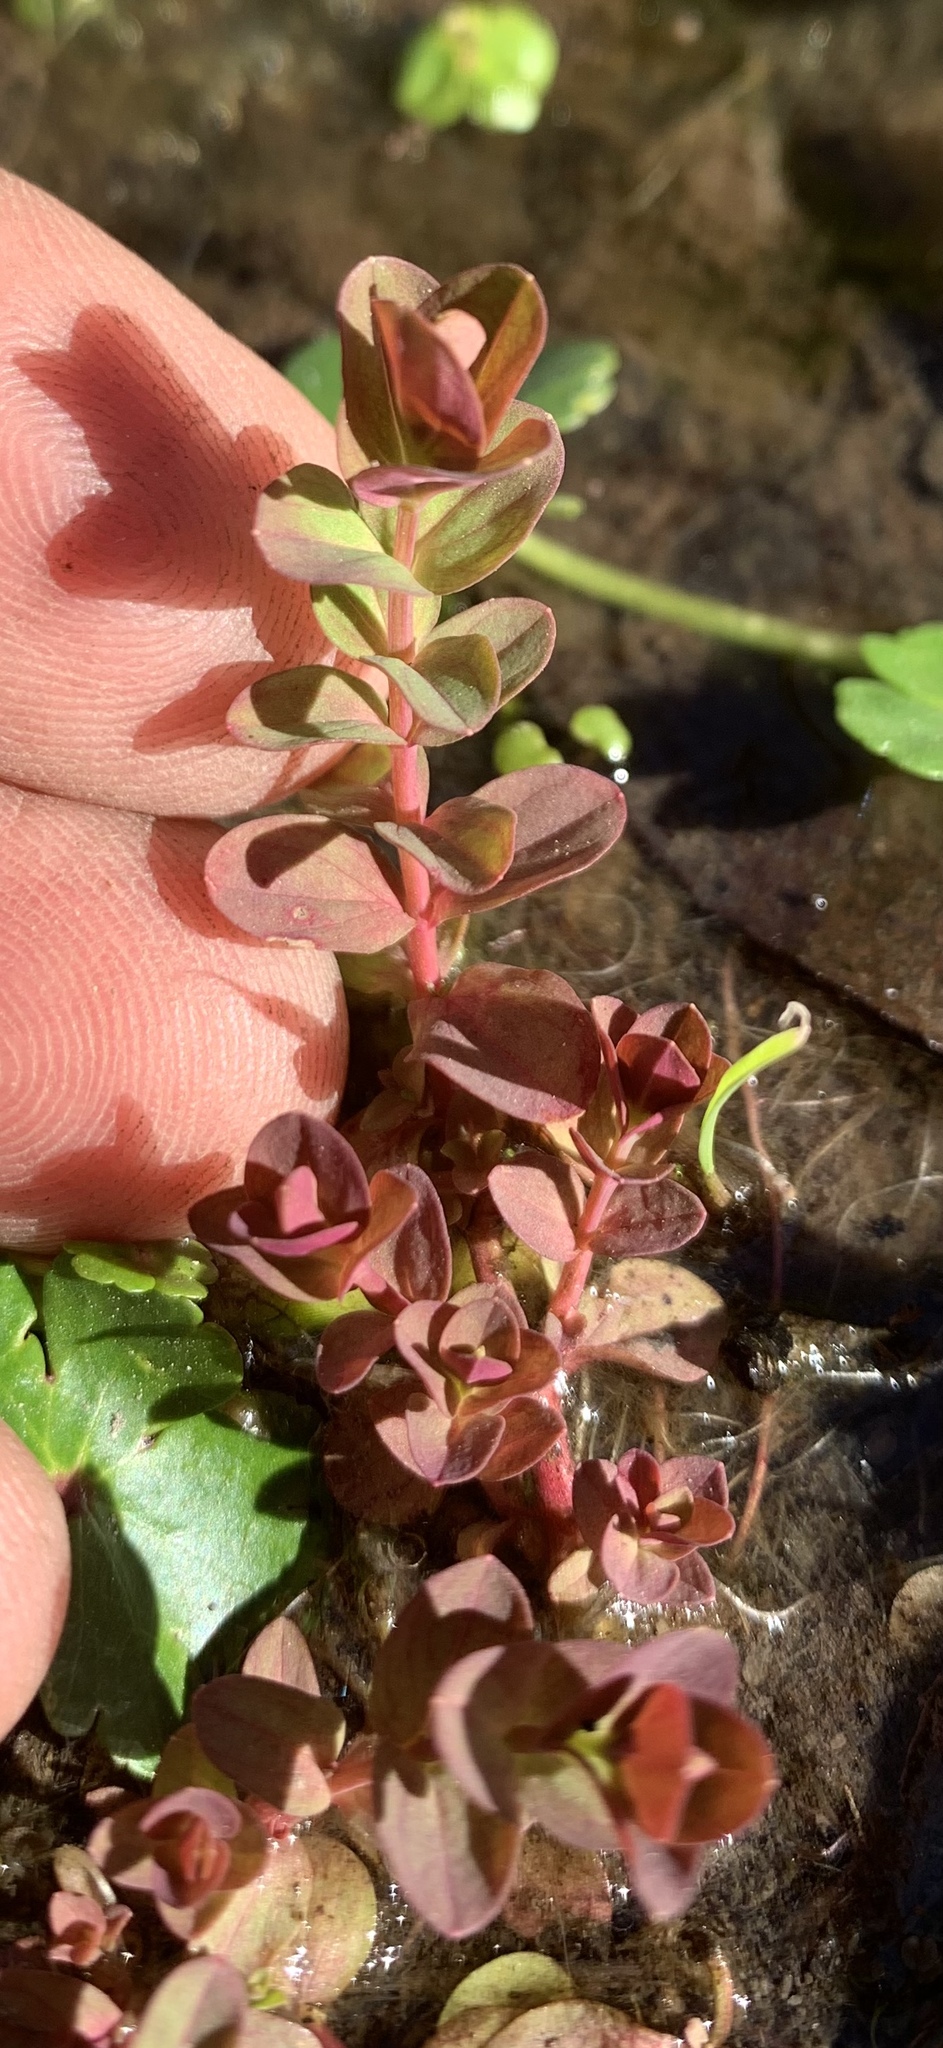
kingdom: Plantae
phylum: Tracheophyta
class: Magnoliopsida
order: Malpighiales
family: Hypericaceae
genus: Hypericum
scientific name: Hypericum mutilum
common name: Dwarf st. john's-wort
